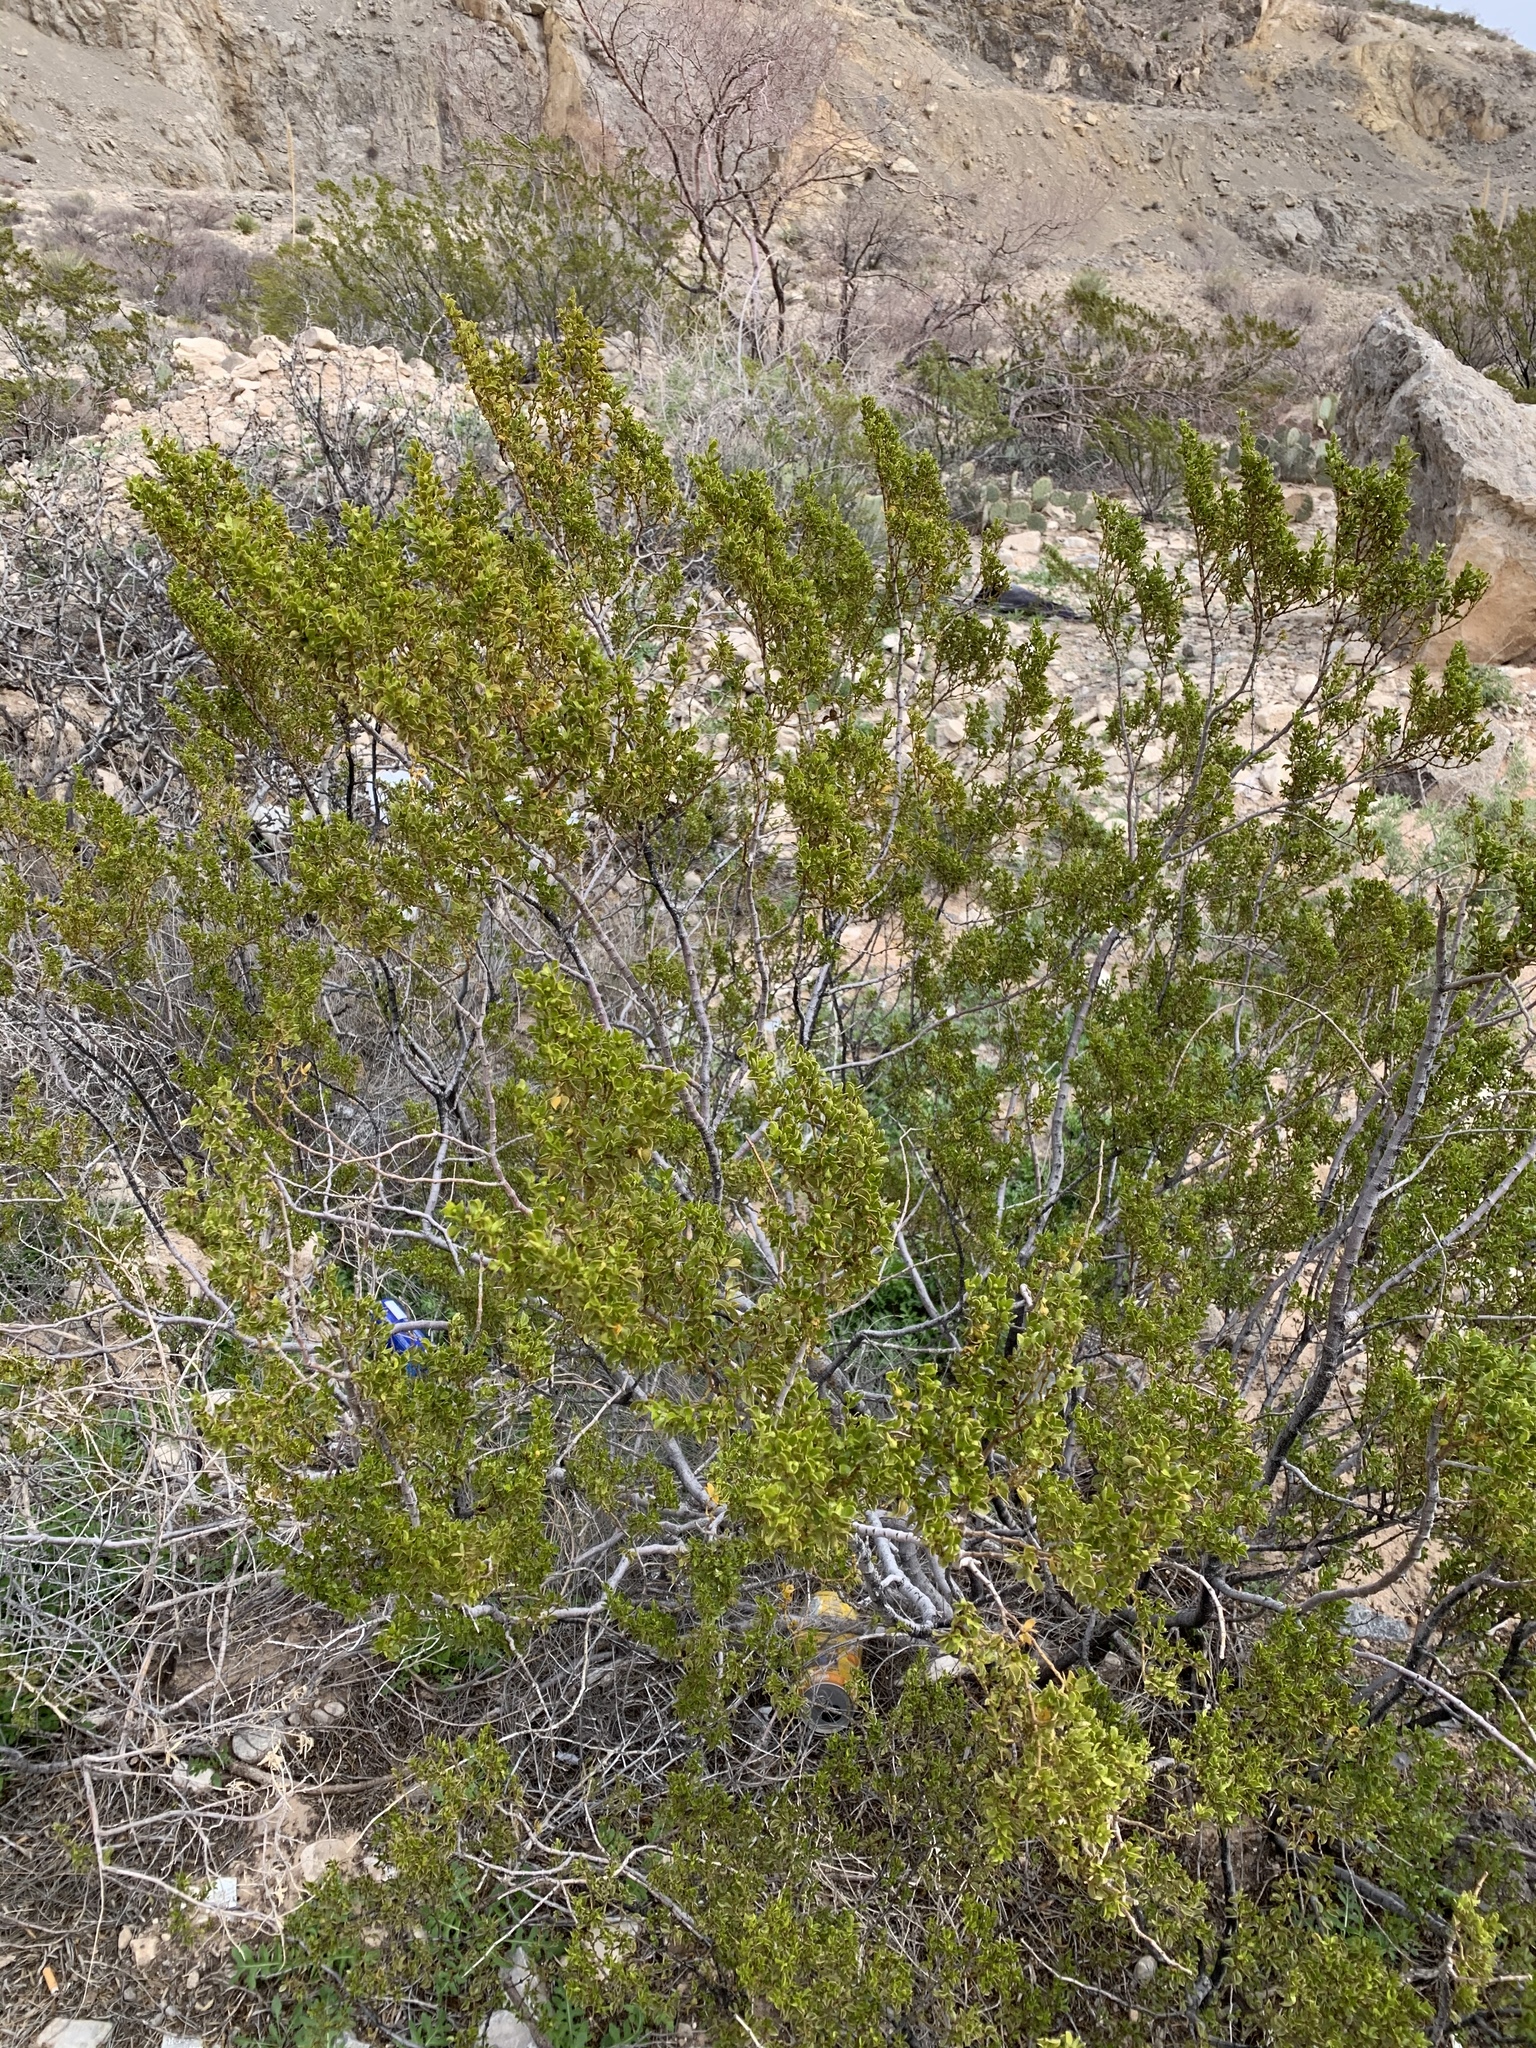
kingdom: Plantae
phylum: Tracheophyta
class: Magnoliopsida
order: Zygophyllales
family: Zygophyllaceae
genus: Larrea
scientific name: Larrea tridentata
